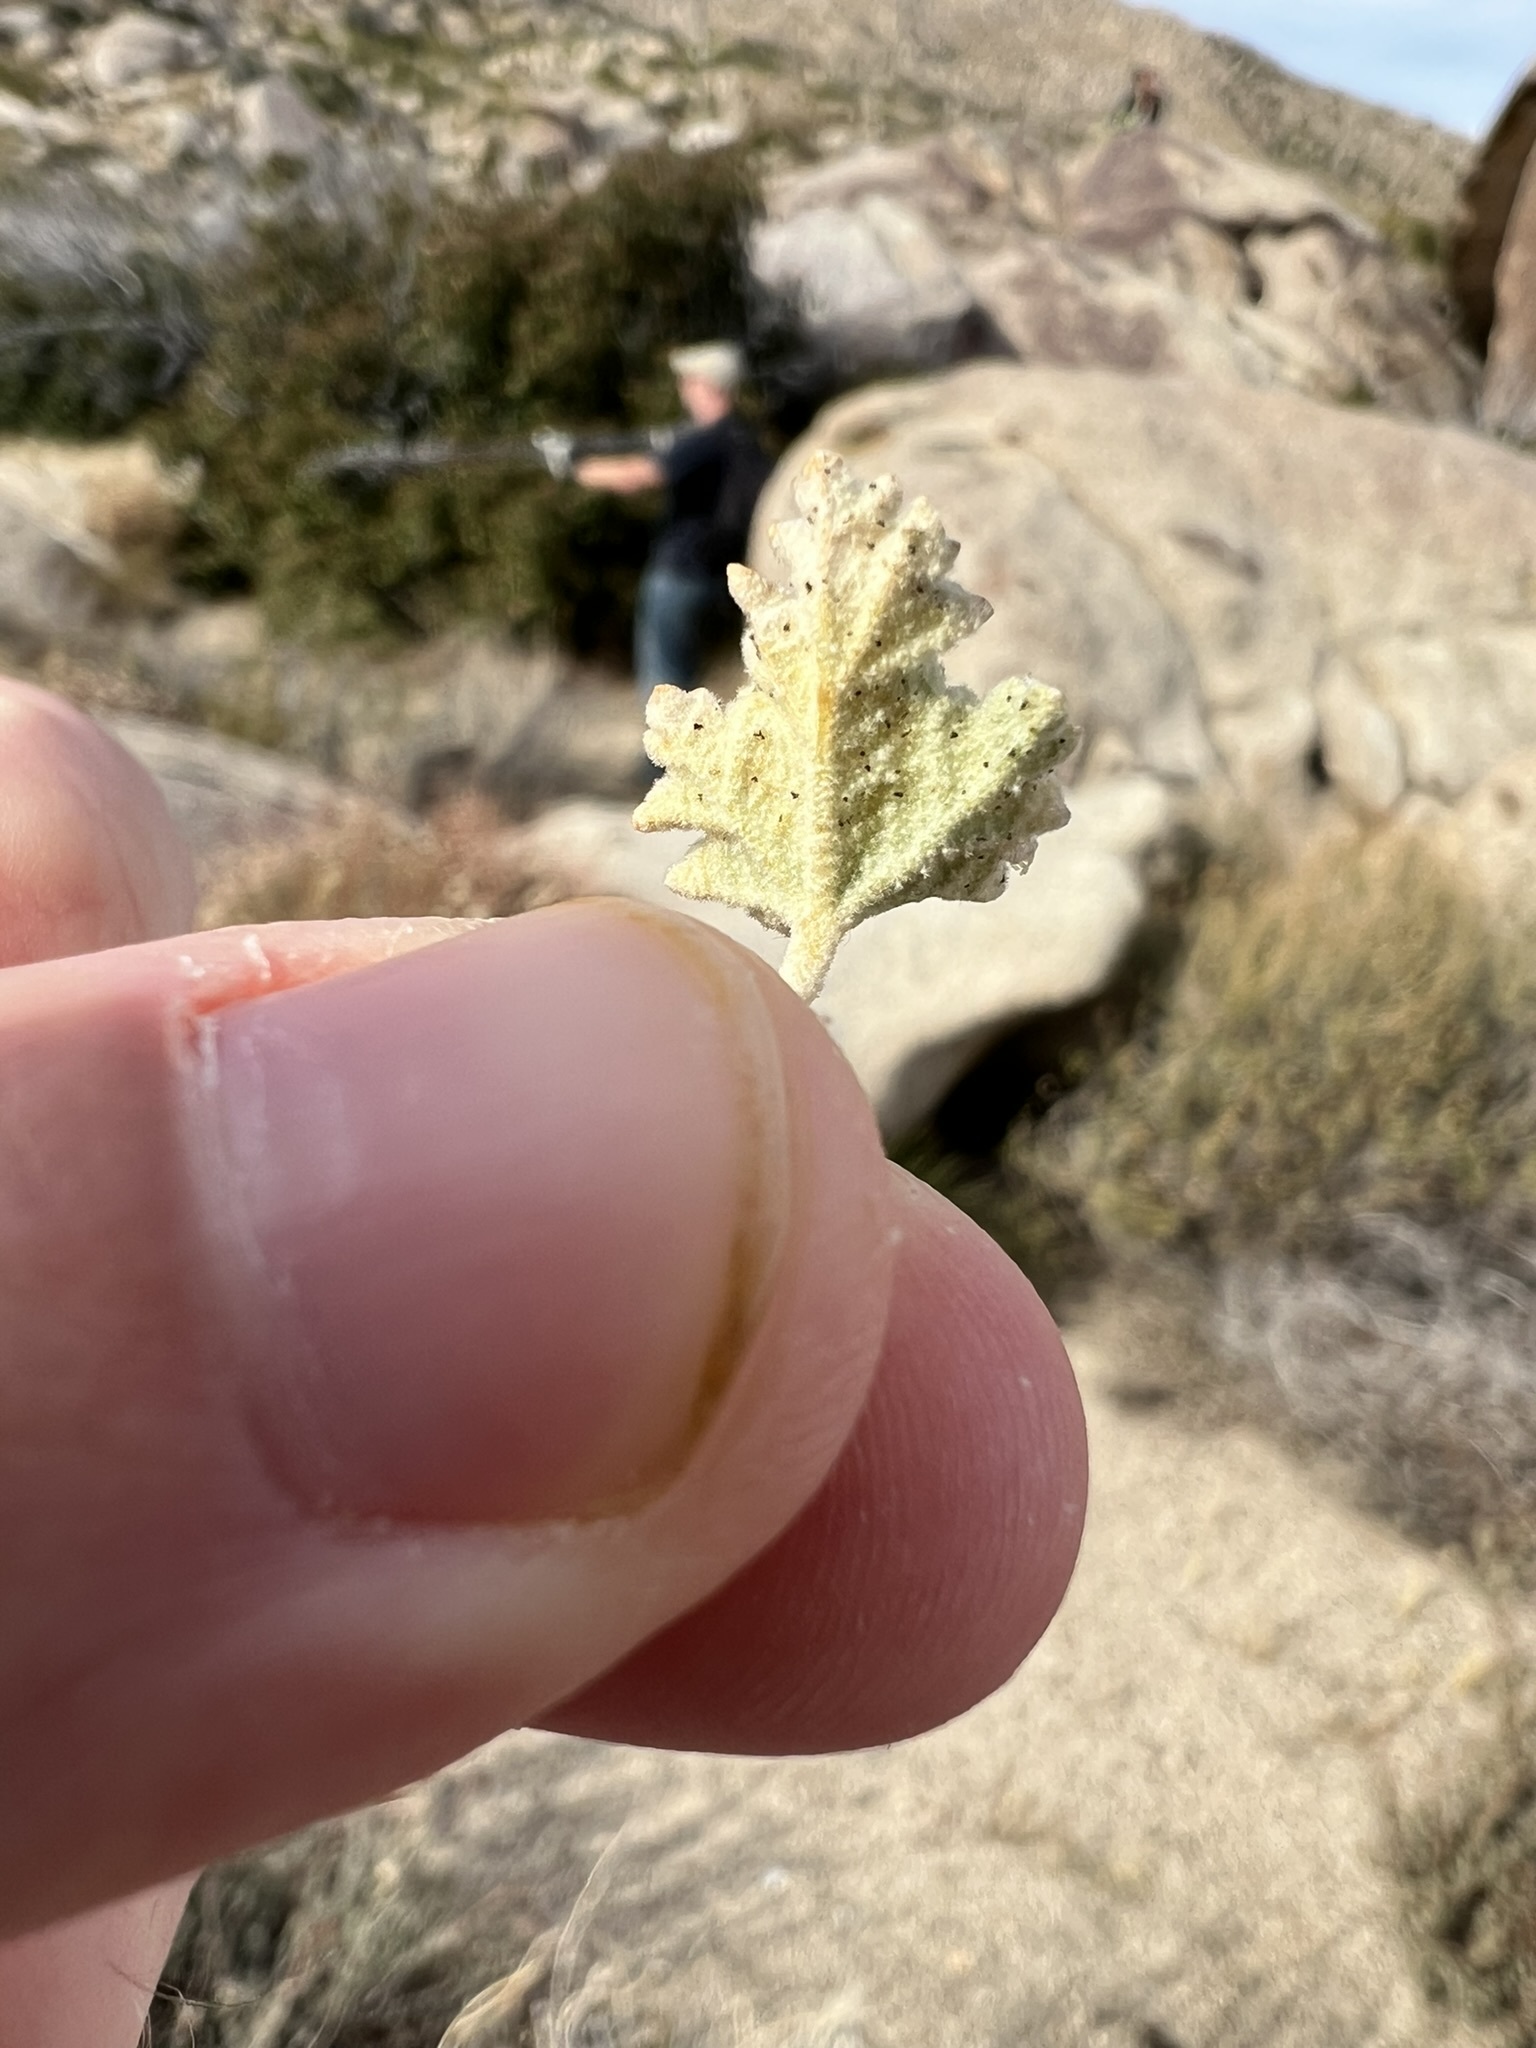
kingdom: Plantae
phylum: Tracheophyta
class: Magnoliopsida
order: Malvales
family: Malvaceae
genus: Sphaeralcea
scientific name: Sphaeralcea ambigua
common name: Apricot globe-mallow
